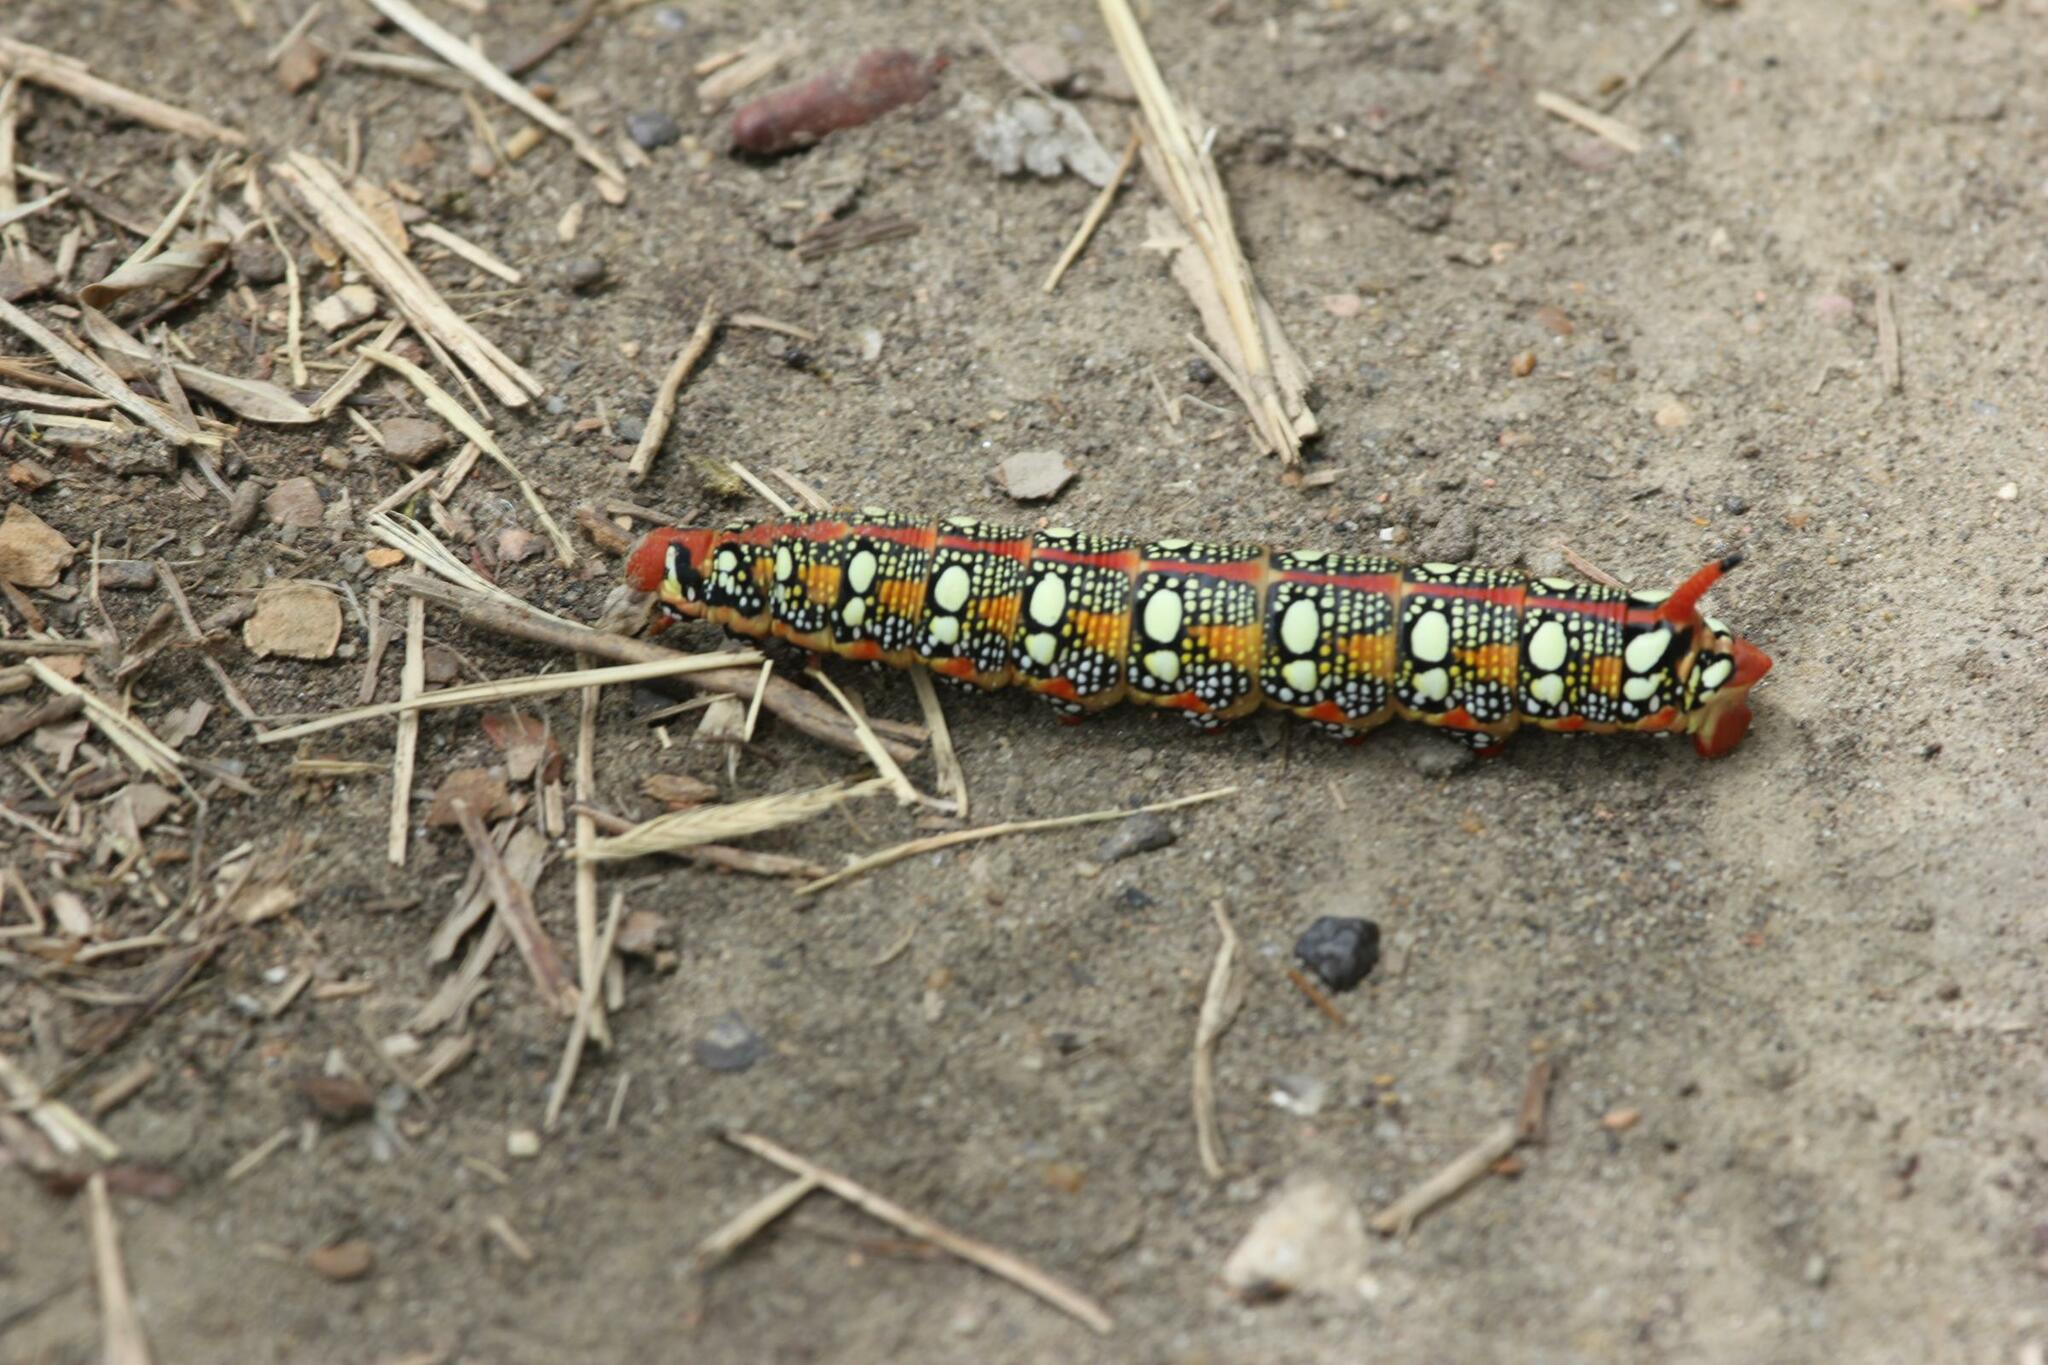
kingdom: Animalia
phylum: Arthropoda
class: Insecta
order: Lepidoptera
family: Sphingidae
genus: Hyles
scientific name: Hyles euphorbiae
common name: Spurge hawk-moth
